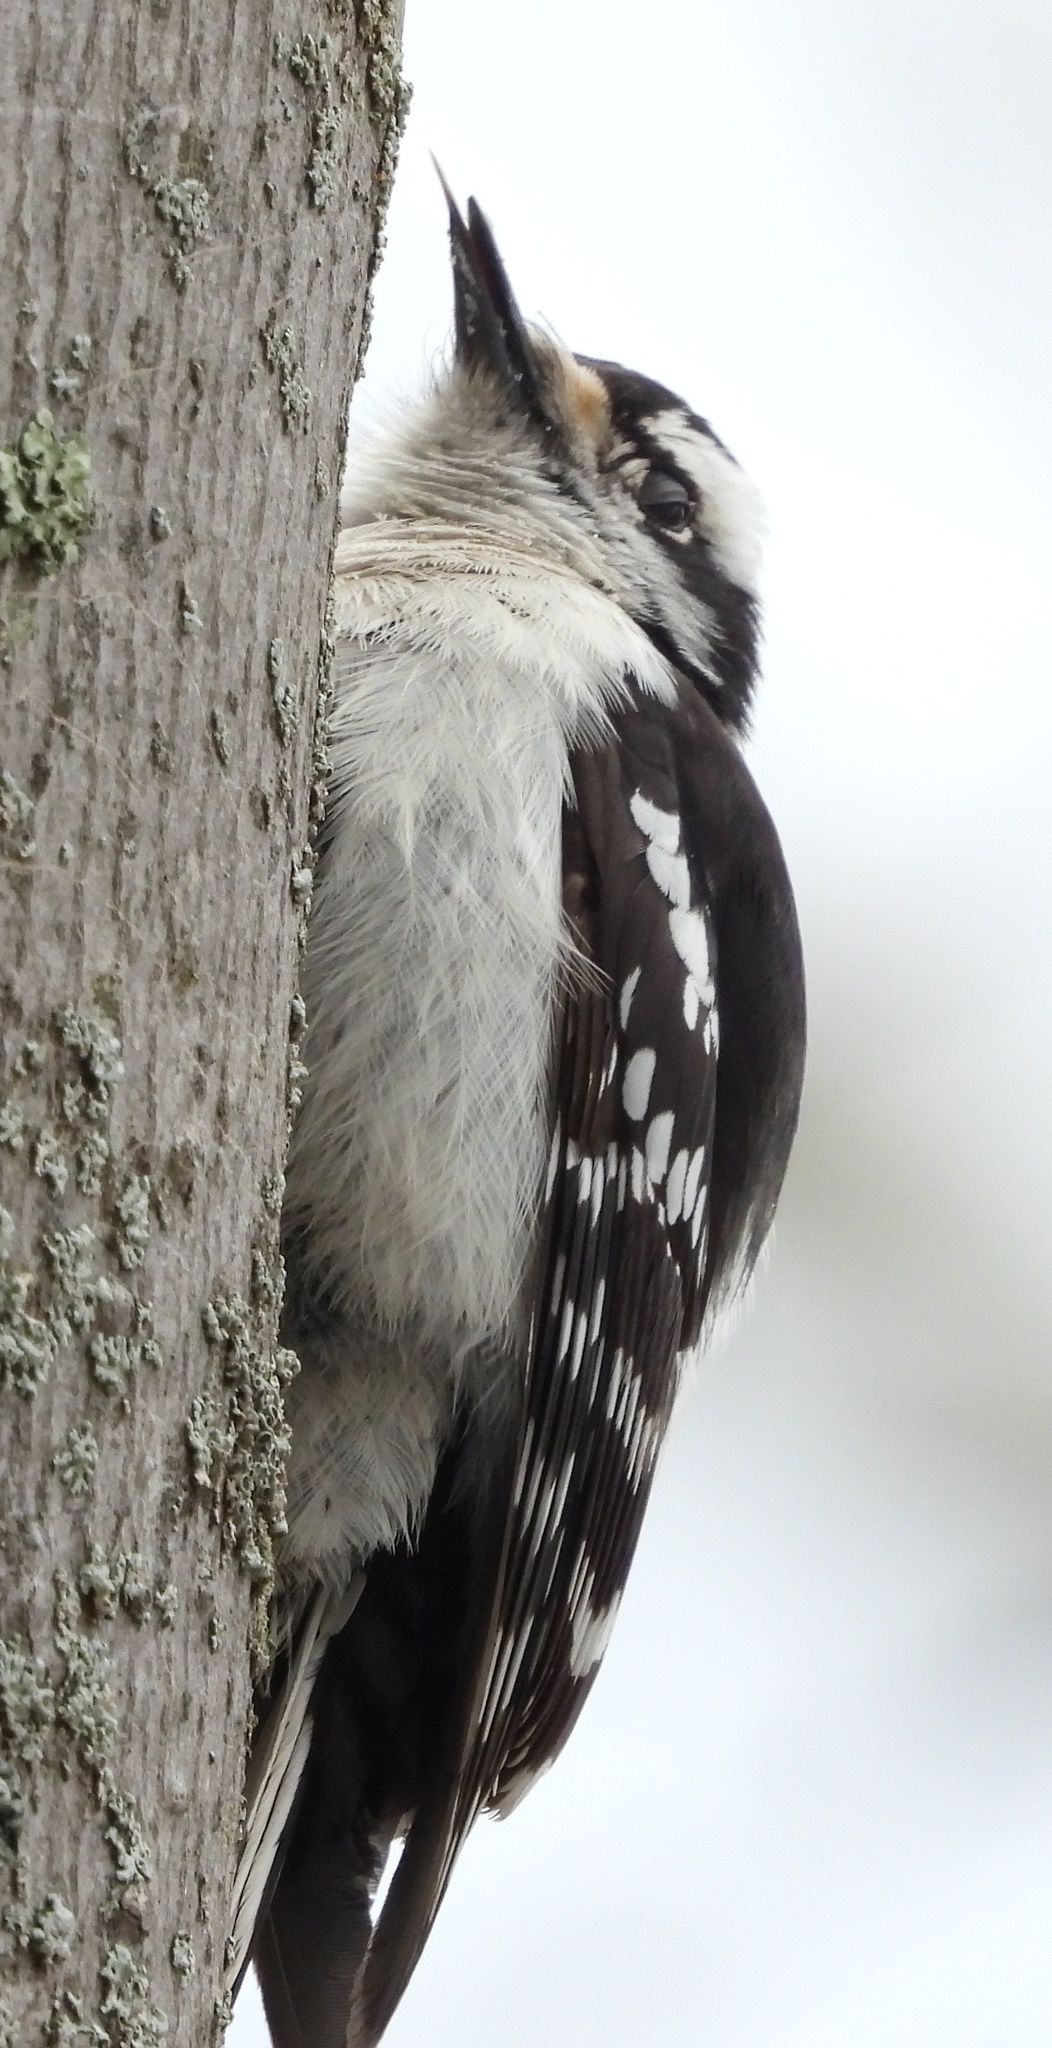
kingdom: Animalia
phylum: Chordata
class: Aves
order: Piciformes
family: Picidae
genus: Dryobates
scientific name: Dryobates pubescens
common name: Downy woodpecker
